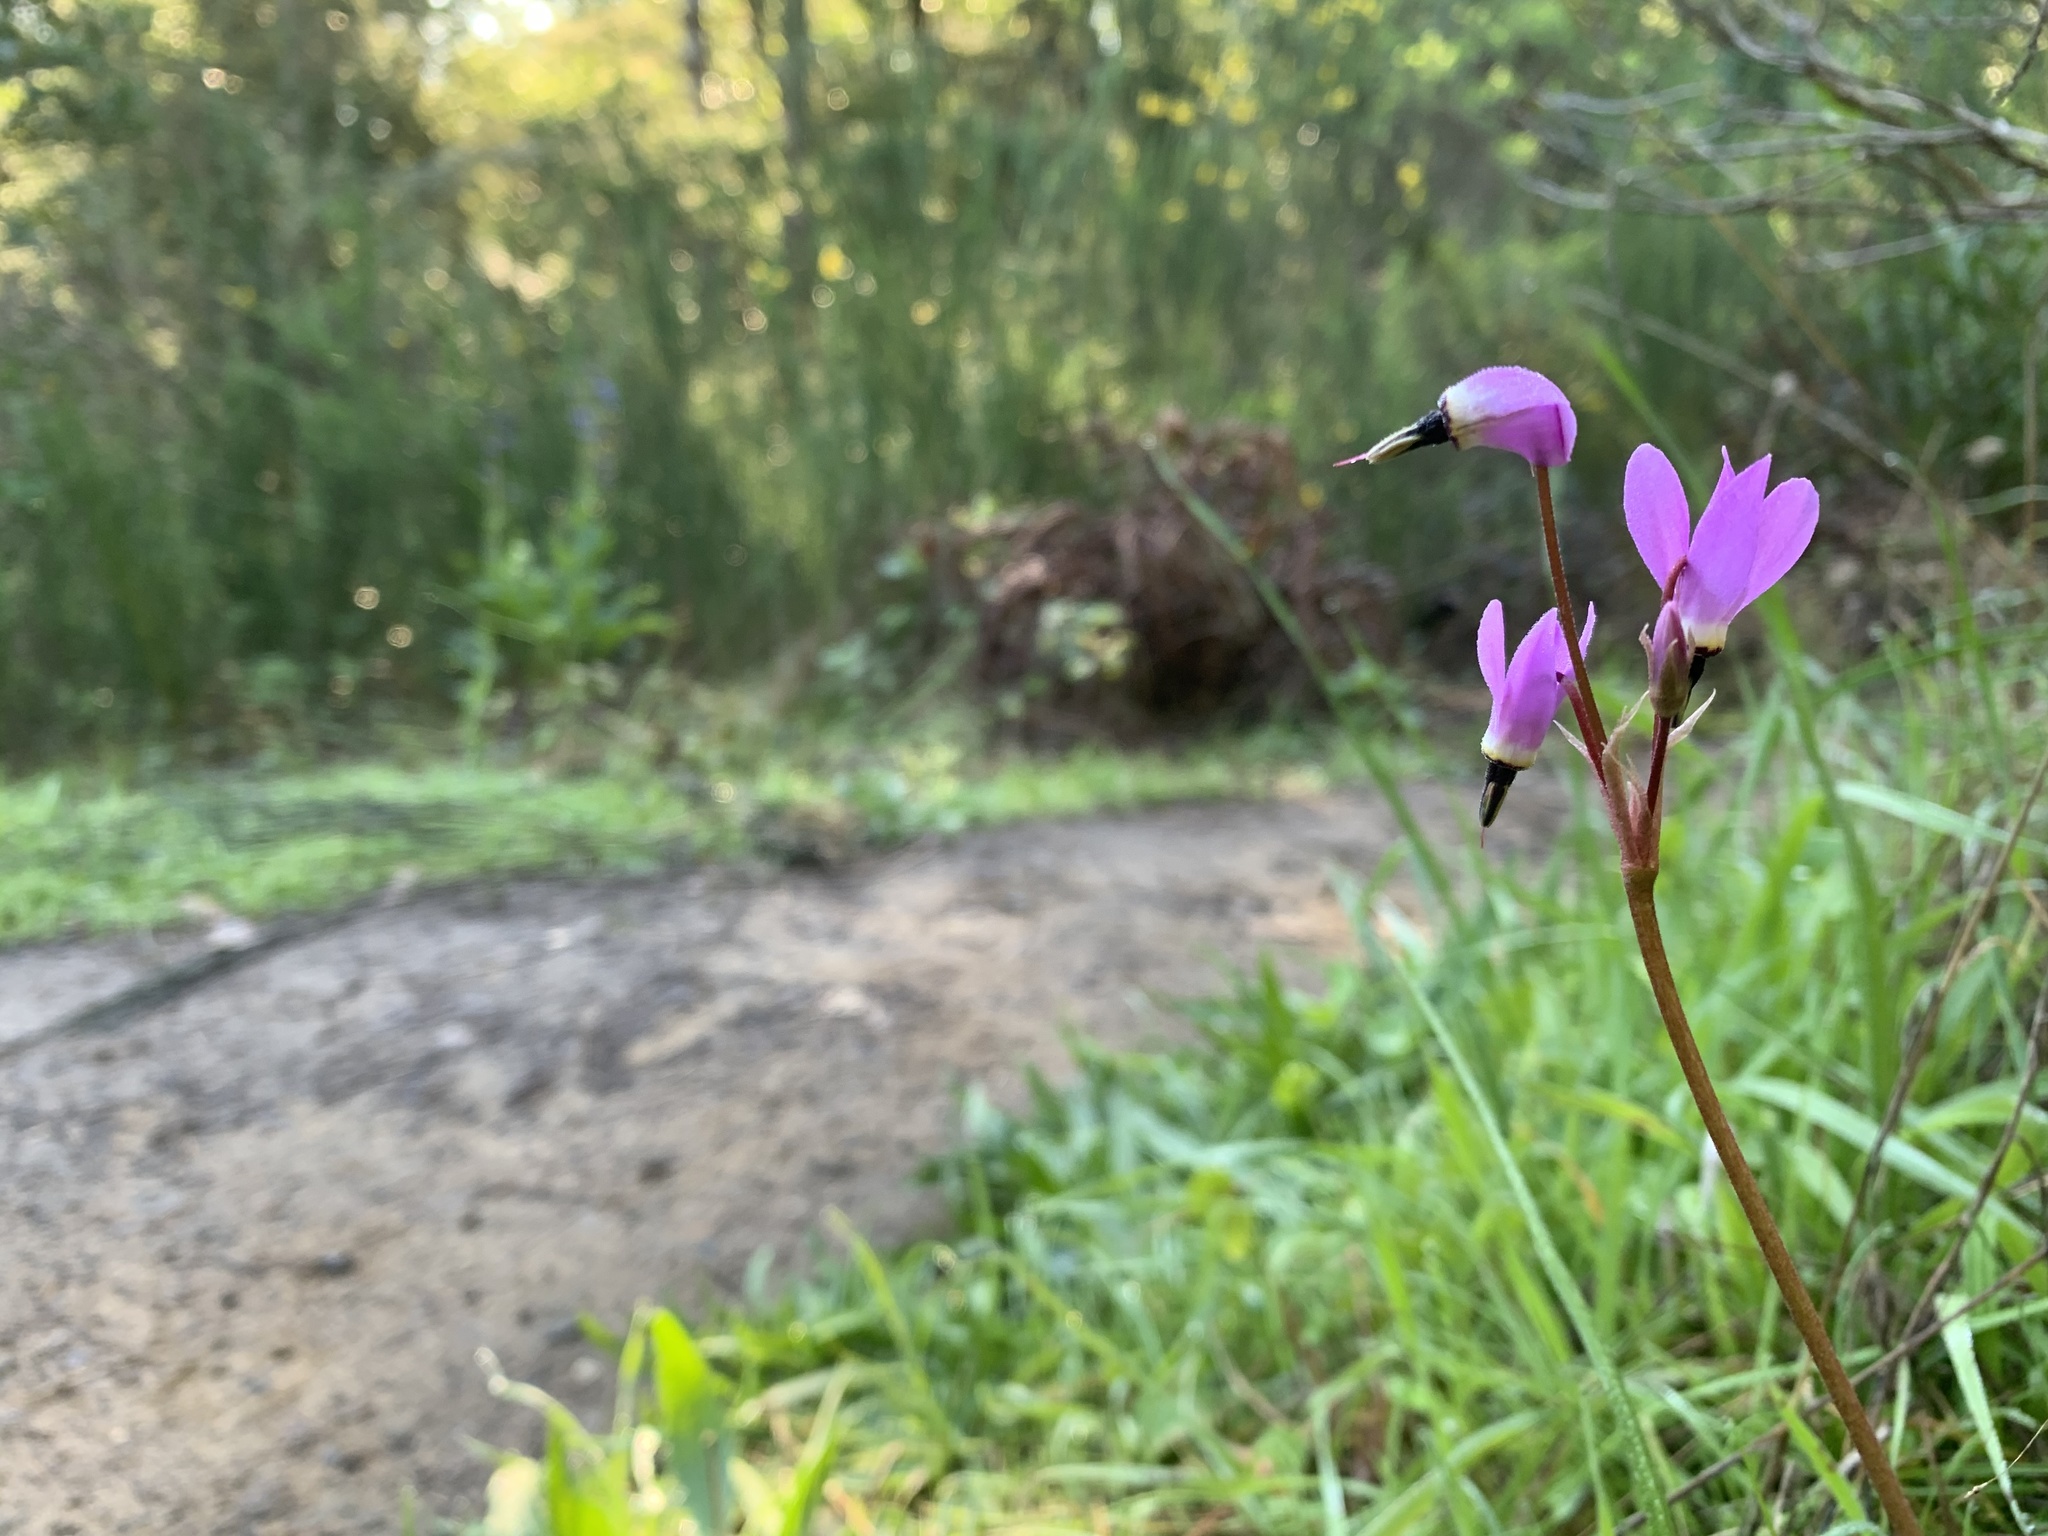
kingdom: Plantae
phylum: Tracheophyta
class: Magnoliopsida
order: Ericales
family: Primulaceae
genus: Dodecatheon
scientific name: Dodecatheon hendersonii
